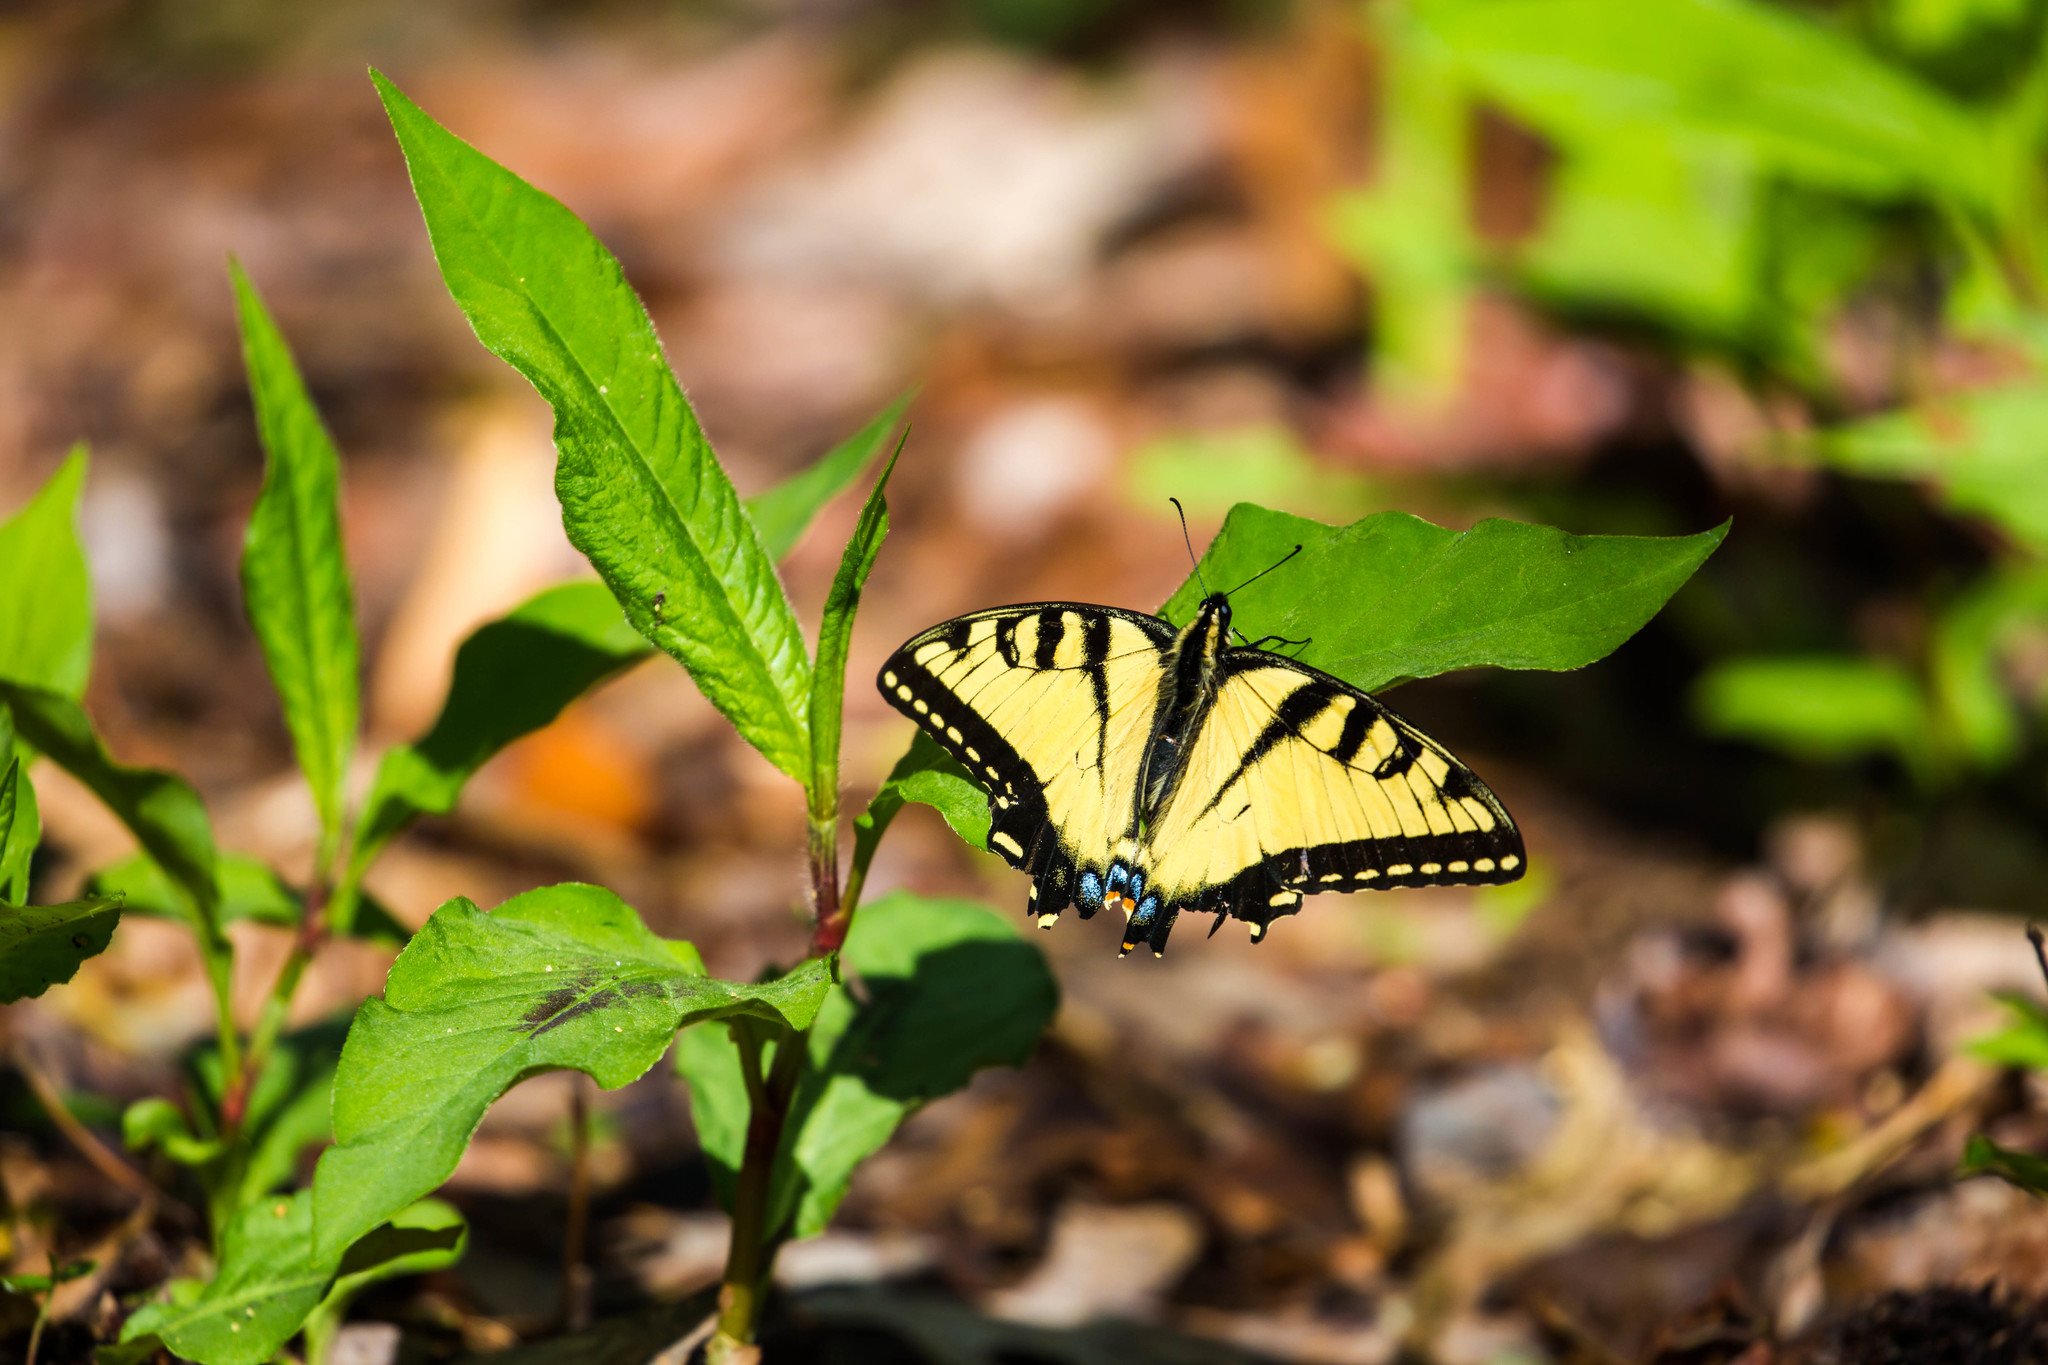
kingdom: Animalia
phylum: Arthropoda
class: Insecta
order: Lepidoptera
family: Papilionidae
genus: Papilio
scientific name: Papilio glaucus
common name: Tiger swallowtail
